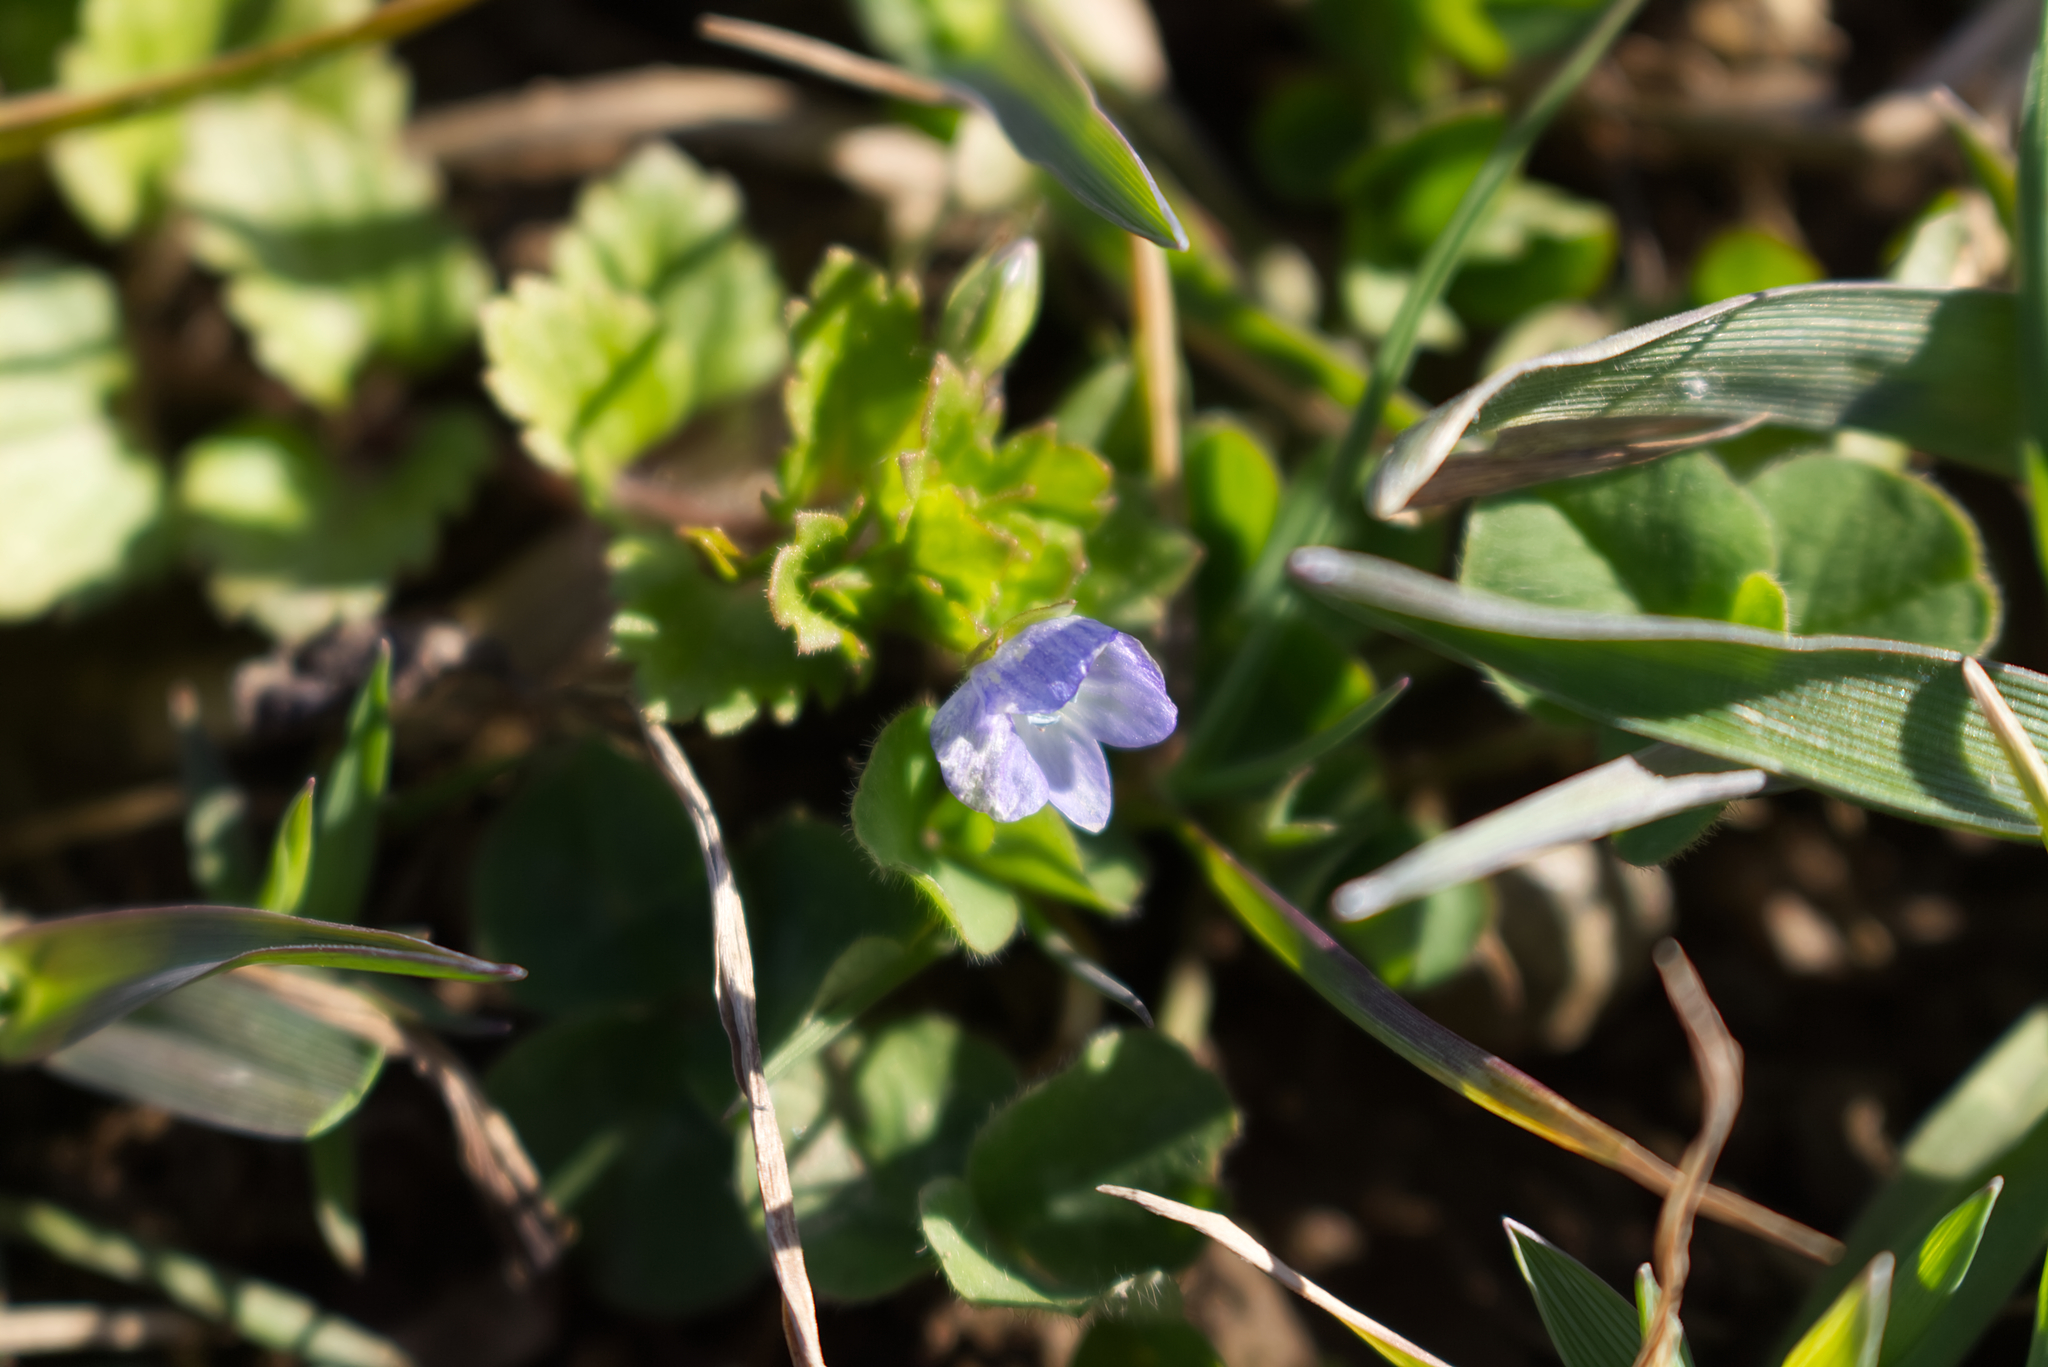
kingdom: Plantae
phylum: Tracheophyta
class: Magnoliopsida
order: Lamiales
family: Plantaginaceae
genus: Veronica
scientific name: Veronica persica
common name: Common field-speedwell
